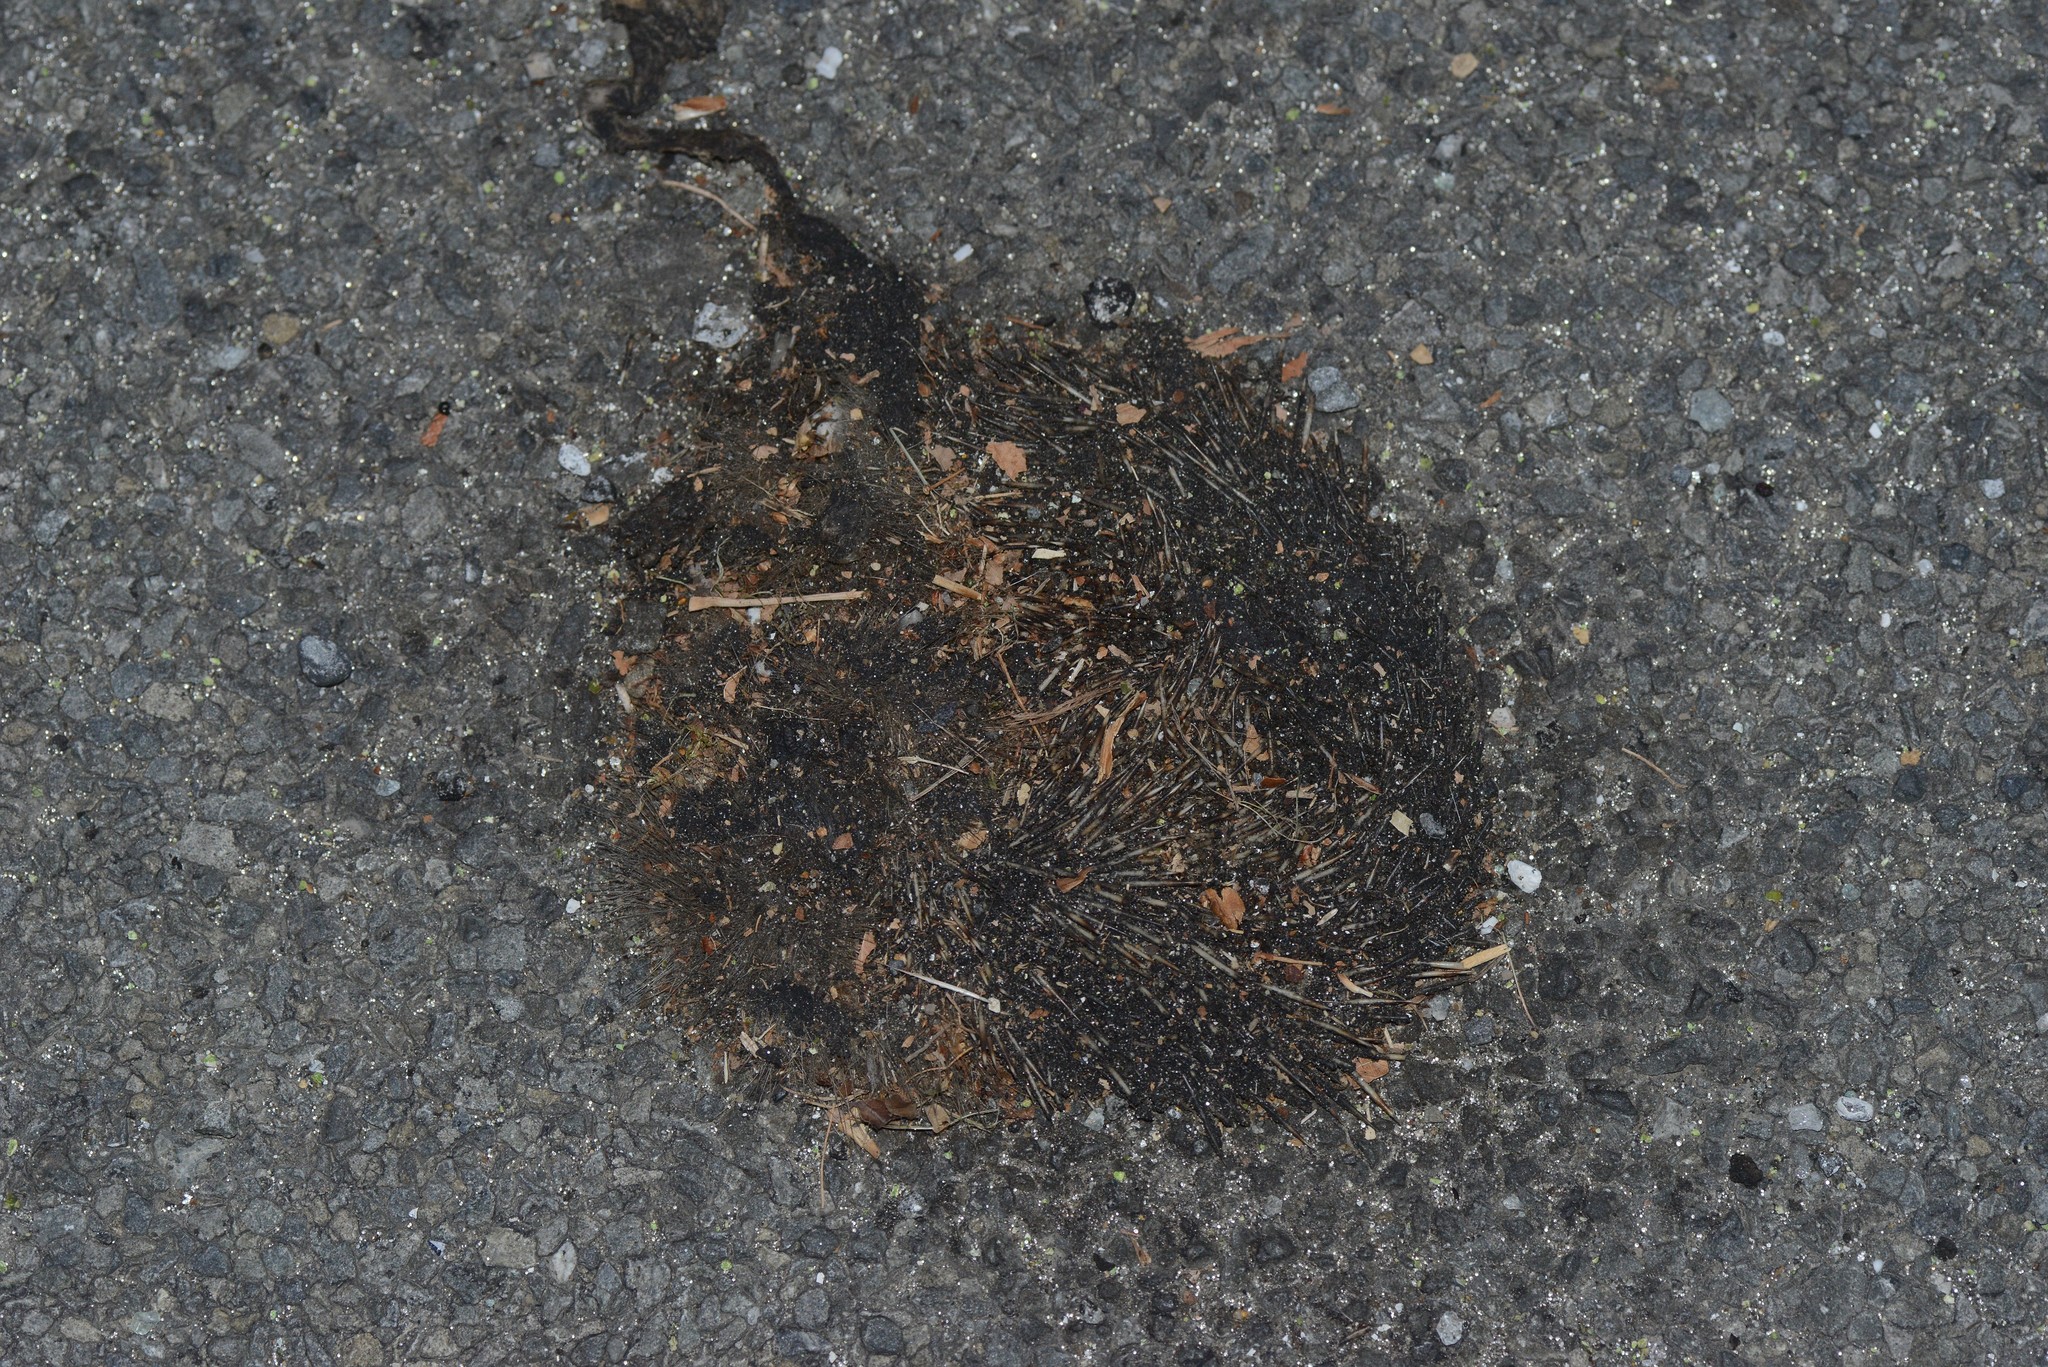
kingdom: Animalia
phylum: Chordata
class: Mammalia
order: Erinaceomorpha
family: Erinaceidae
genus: Erinaceus
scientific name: Erinaceus europaeus
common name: West european hedgehog
